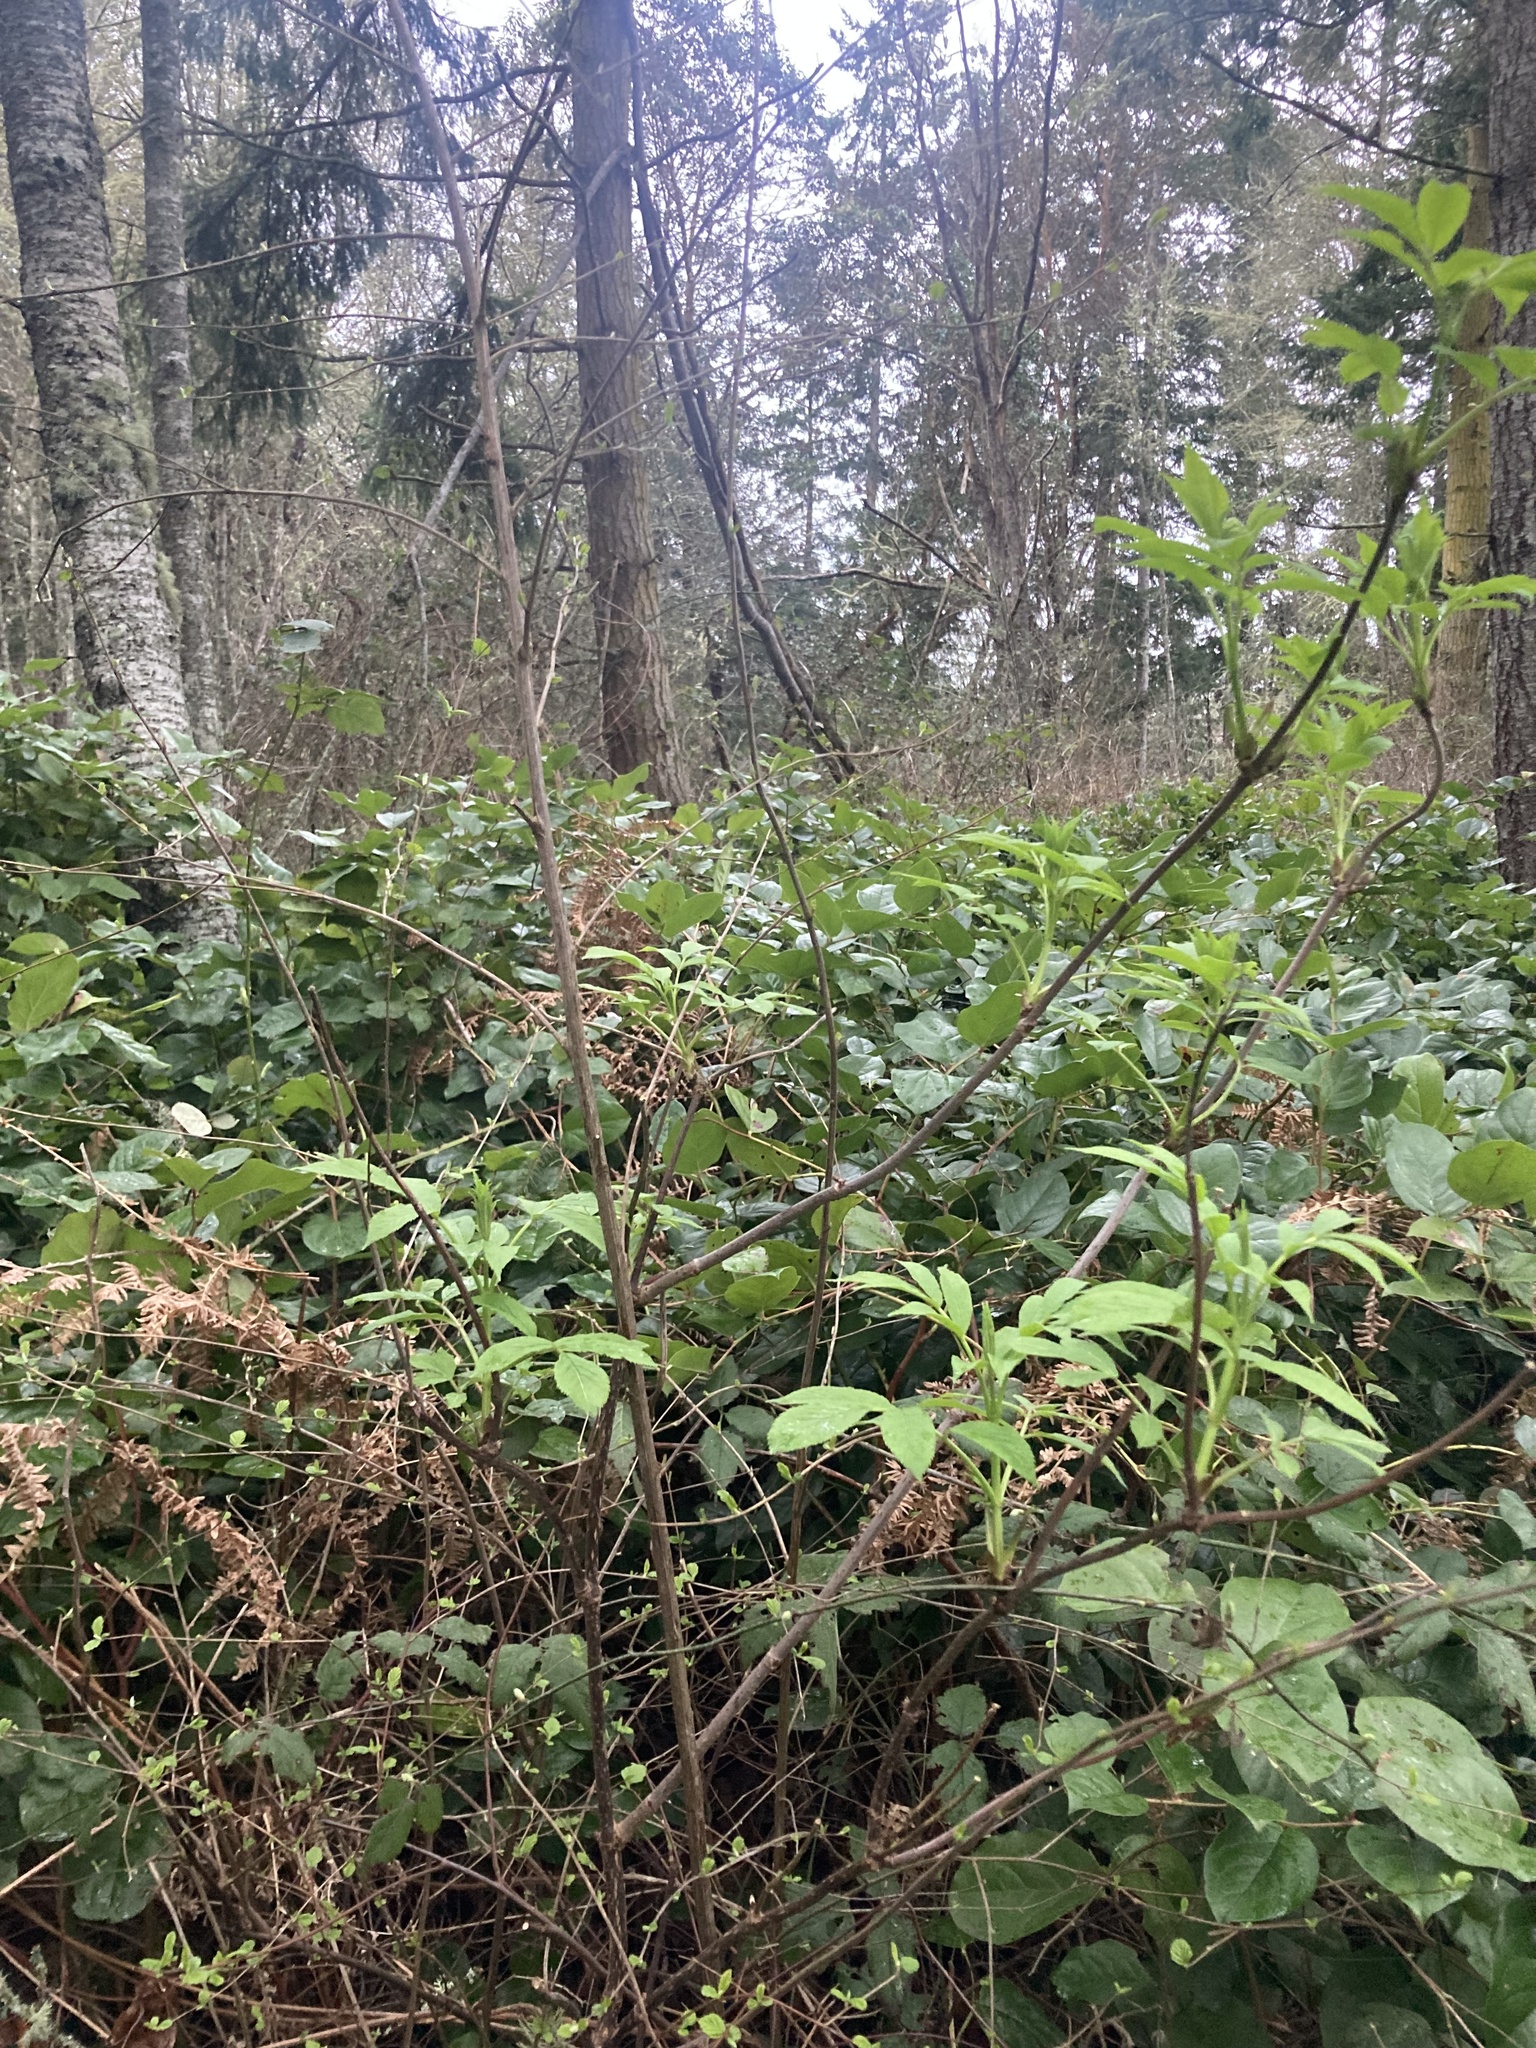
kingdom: Plantae
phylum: Tracheophyta
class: Magnoliopsida
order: Dipsacales
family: Viburnaceae
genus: Sambucus
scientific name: Sambucus racemosa
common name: Red-berried elder
